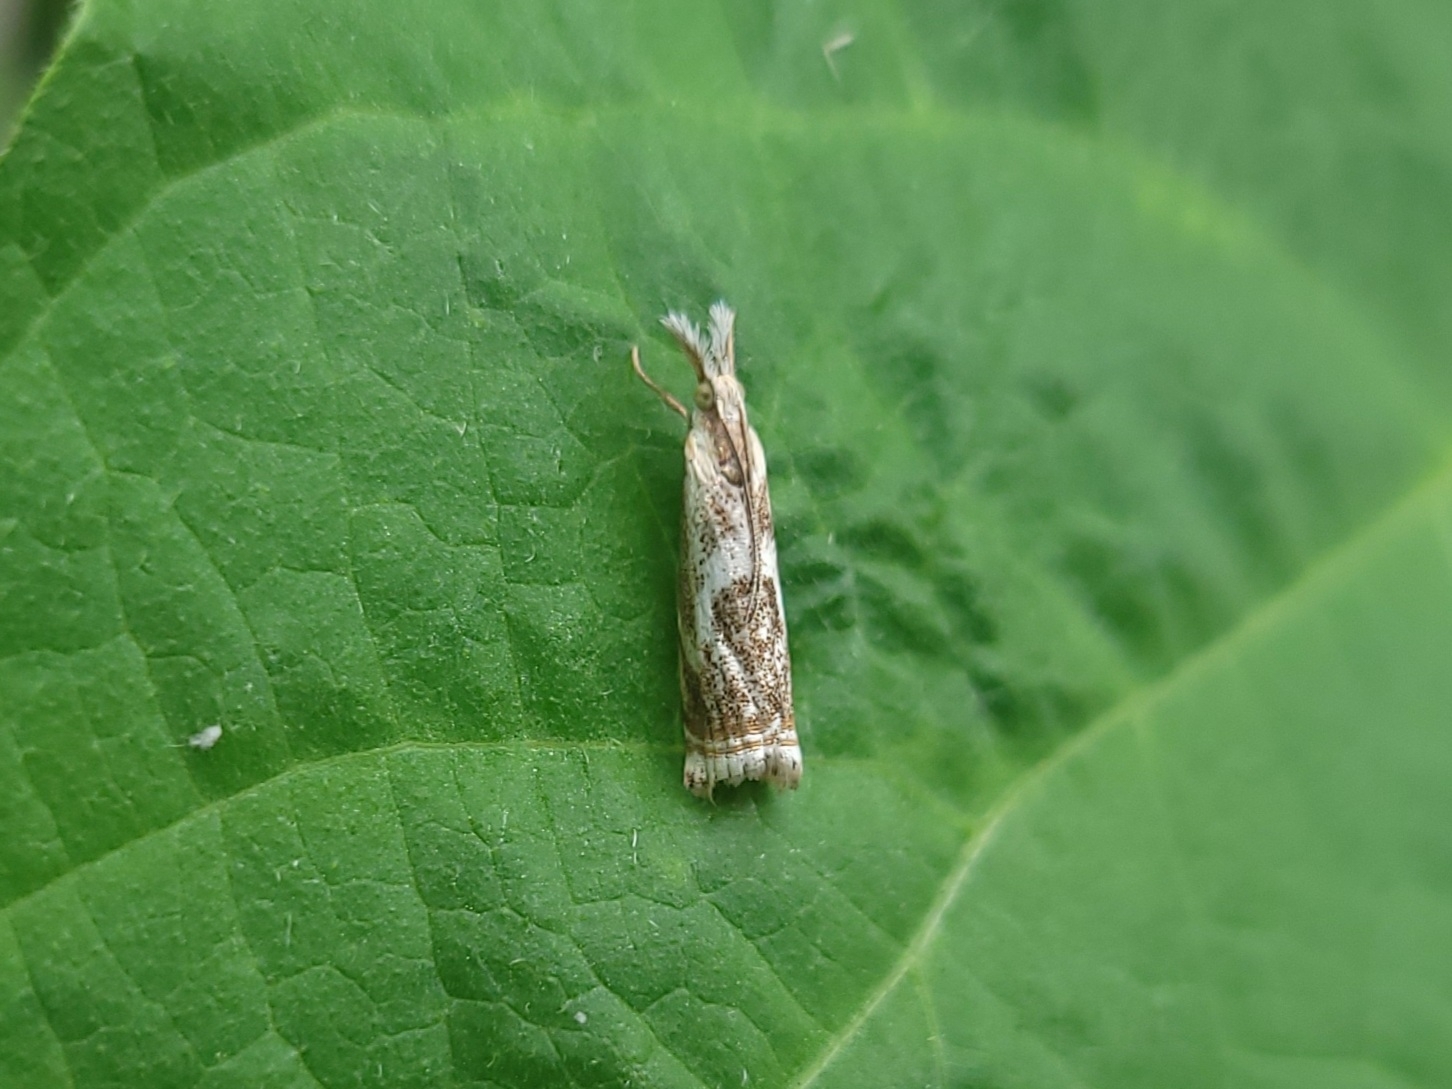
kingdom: Animalia
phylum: Arthropoda
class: Insecta
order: Lepidoptera
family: Crambidae
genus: Microcrambus
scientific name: Microcrambus elegans
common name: Elegant grass-veneer
